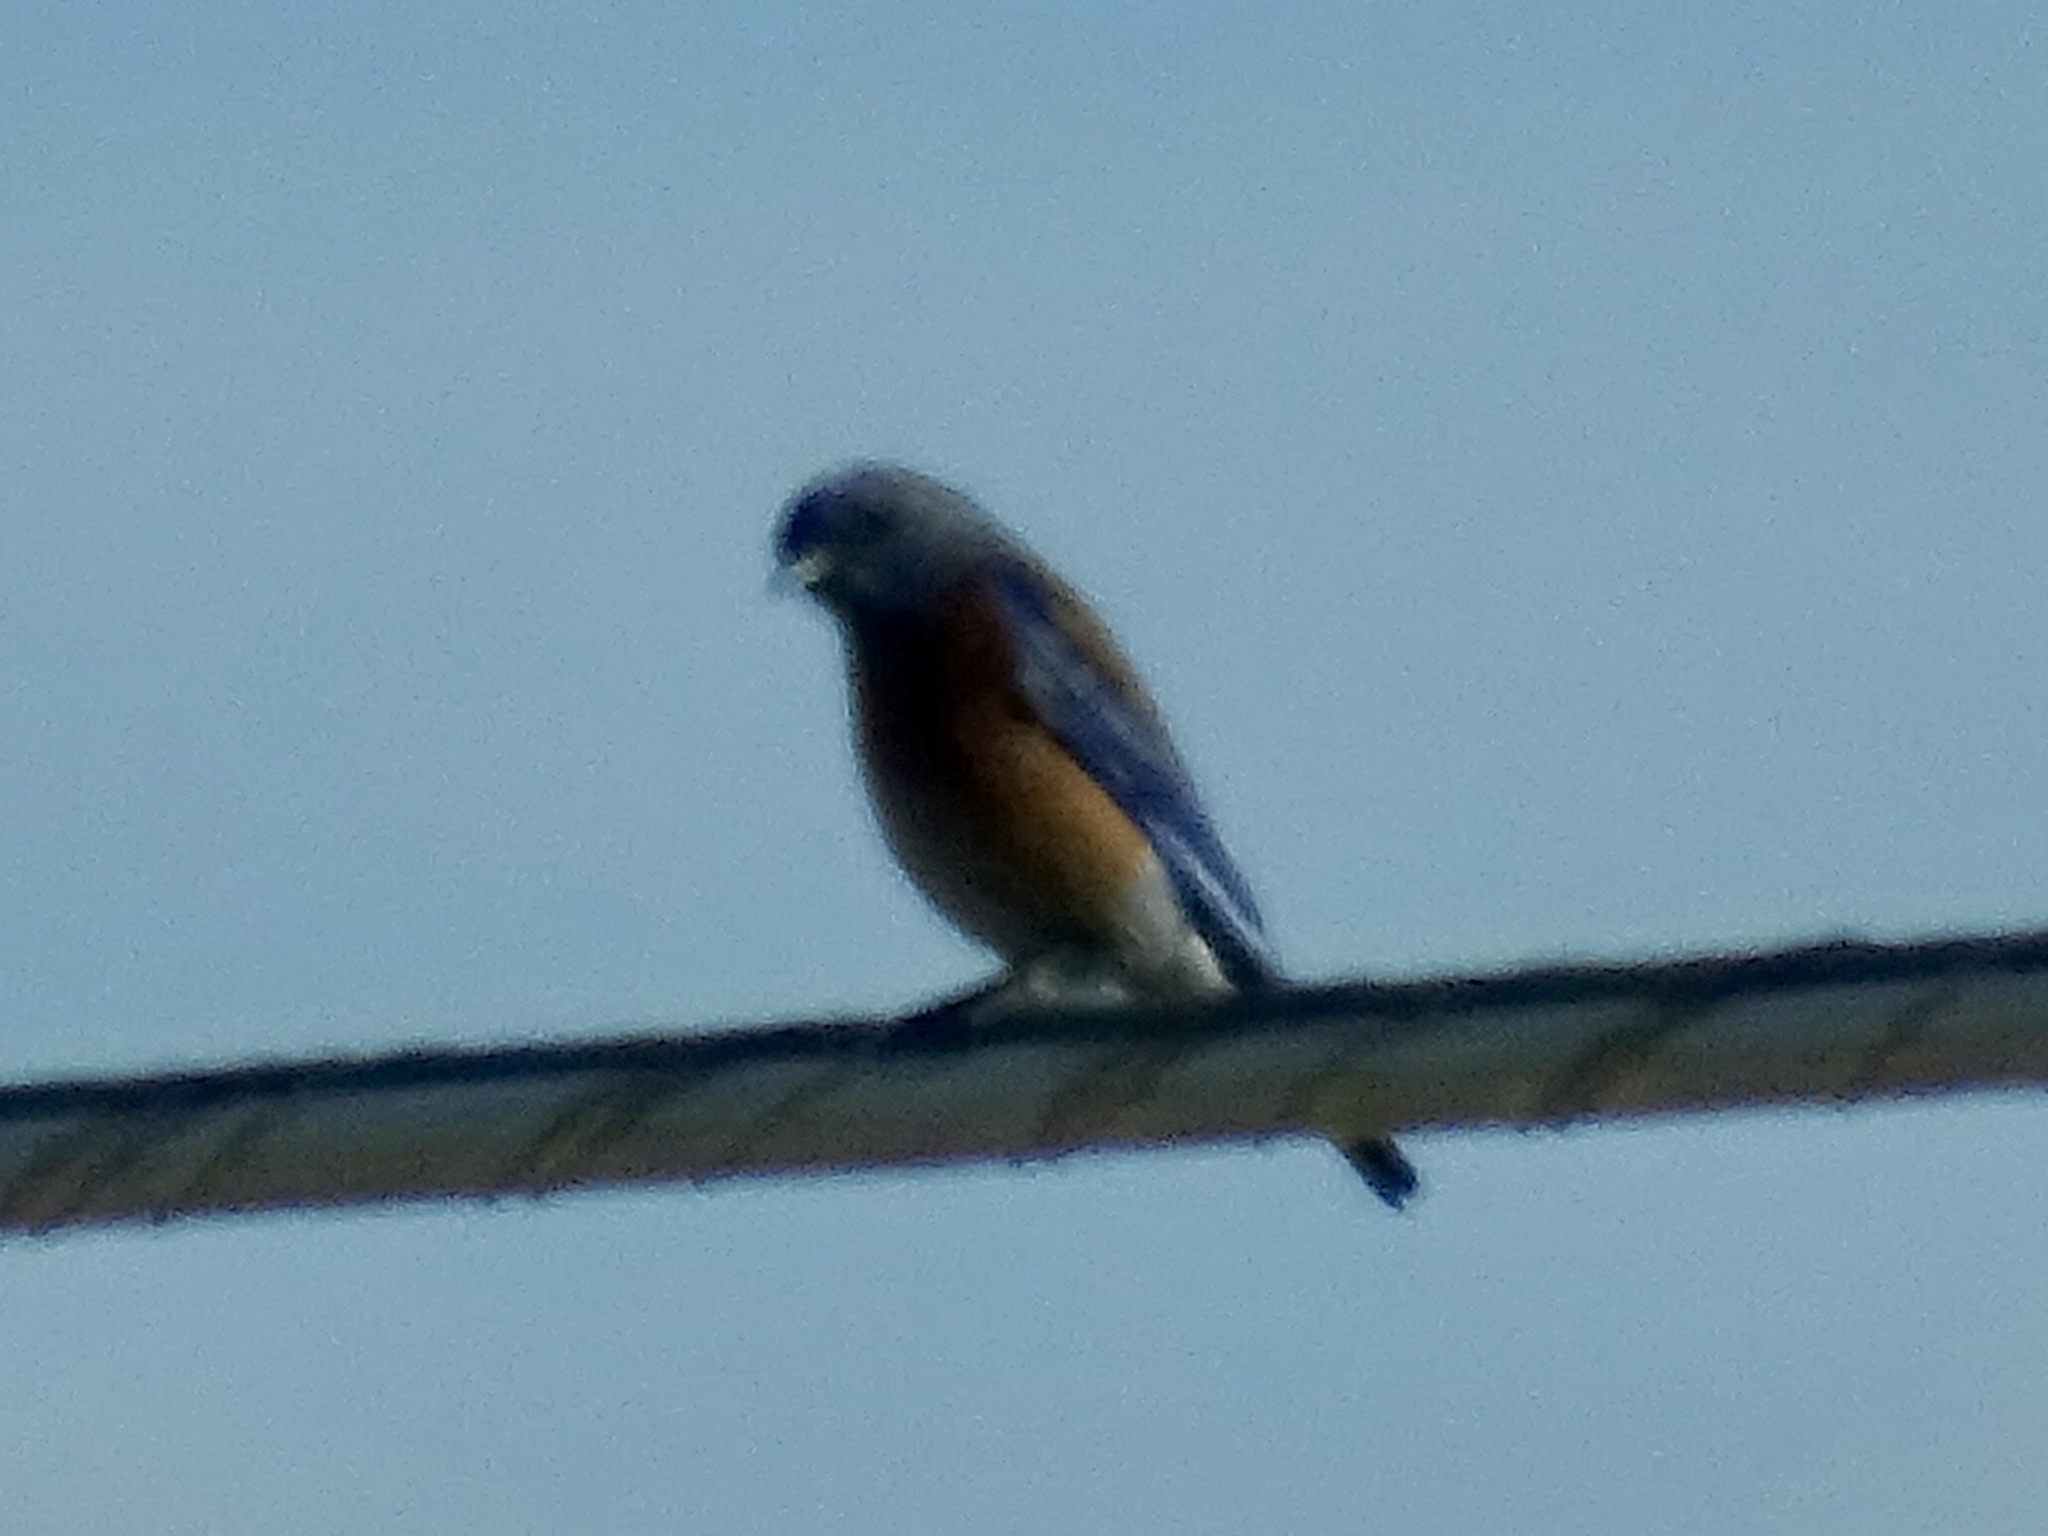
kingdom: Animalia
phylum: Chordata
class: Aves
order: Passeriformes
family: Turdidae
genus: Sialia
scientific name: Sialia mexicana
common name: Western bluebird
